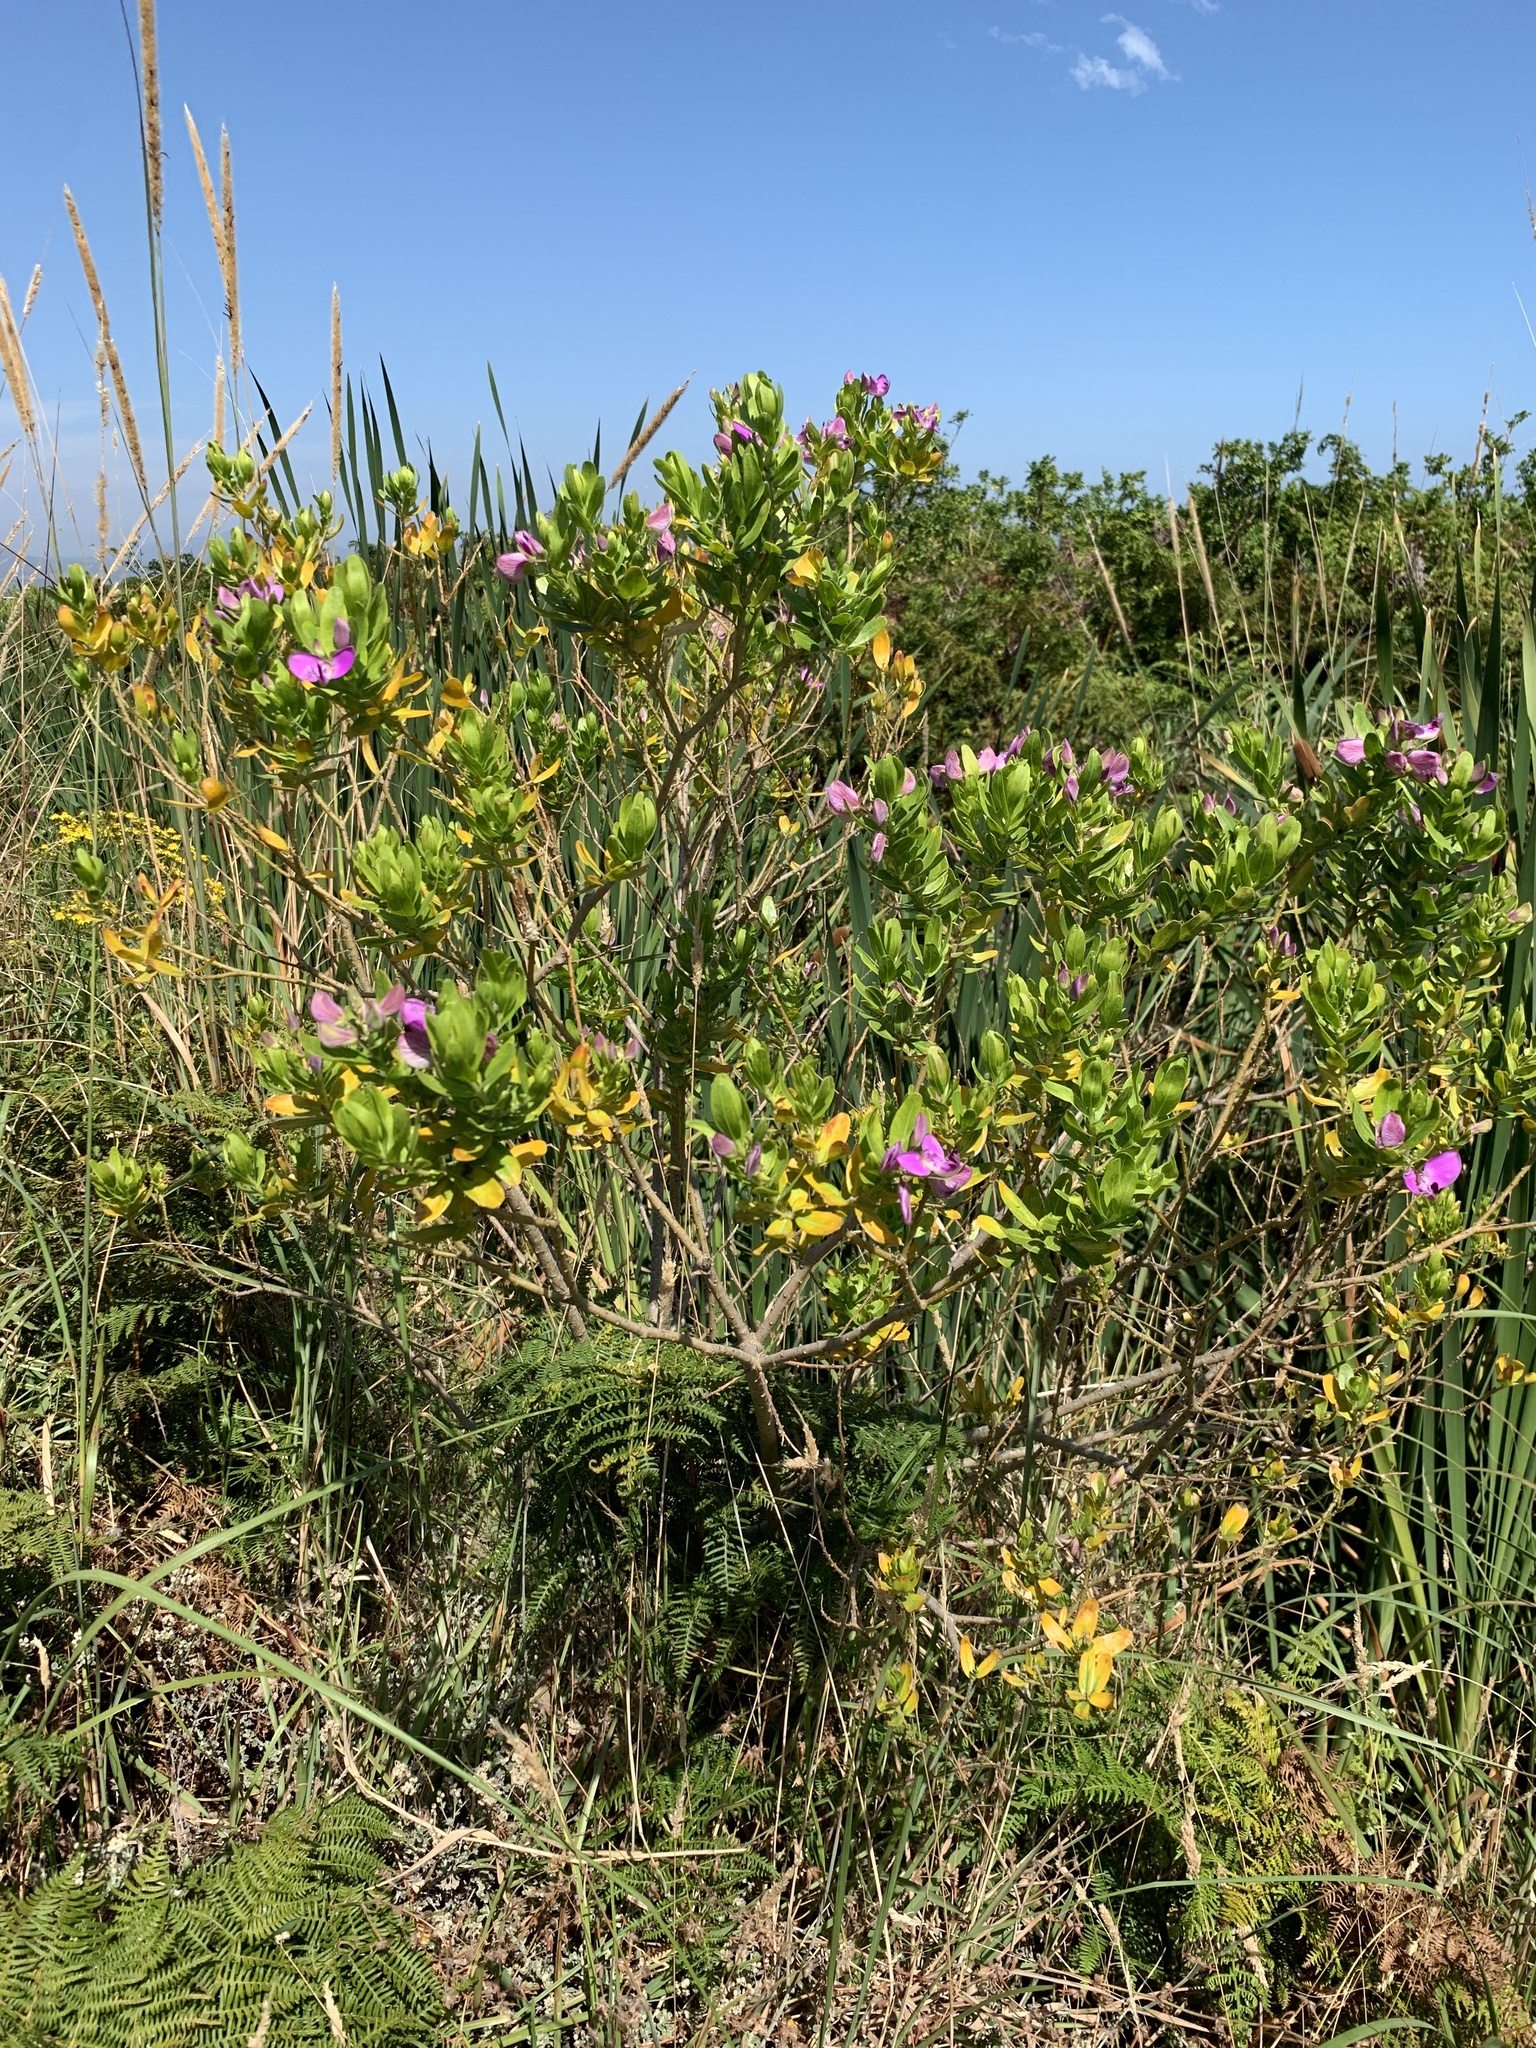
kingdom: Plantae
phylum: Tracheophyta
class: Magnoliopsida
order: Fabales
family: Polygalaceae
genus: Polygala
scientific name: Polygala myrtifolia
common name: Myrtle-leaf milkwort
